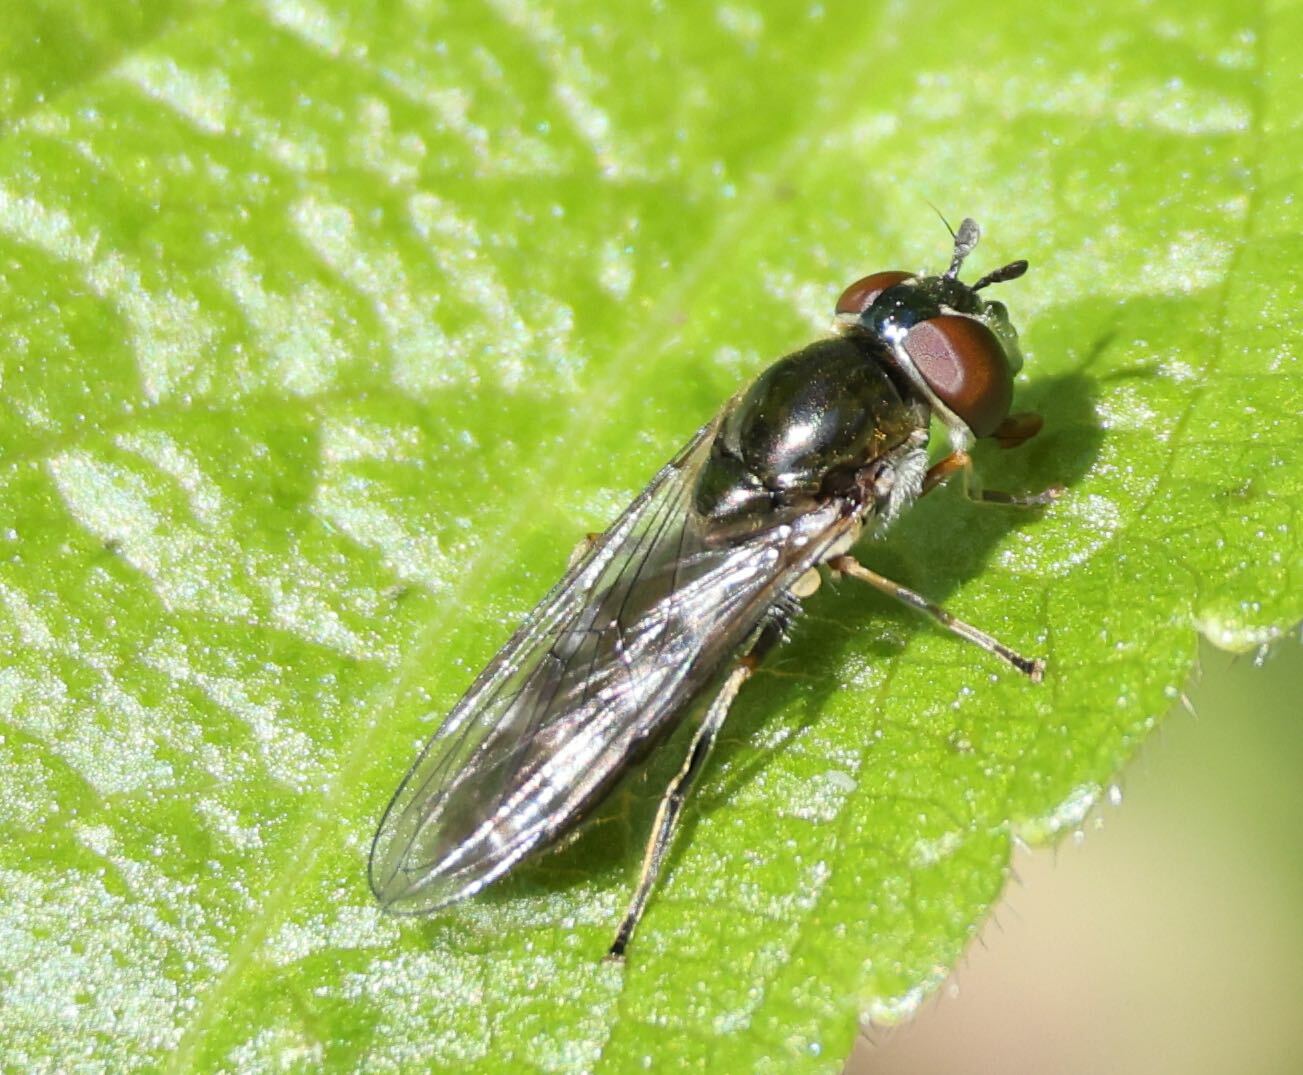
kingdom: Animalia
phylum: Arthropoda
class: Insecta
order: Diptera
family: Syrphidae
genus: Platycheirus
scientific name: Platycheirus albimanus
